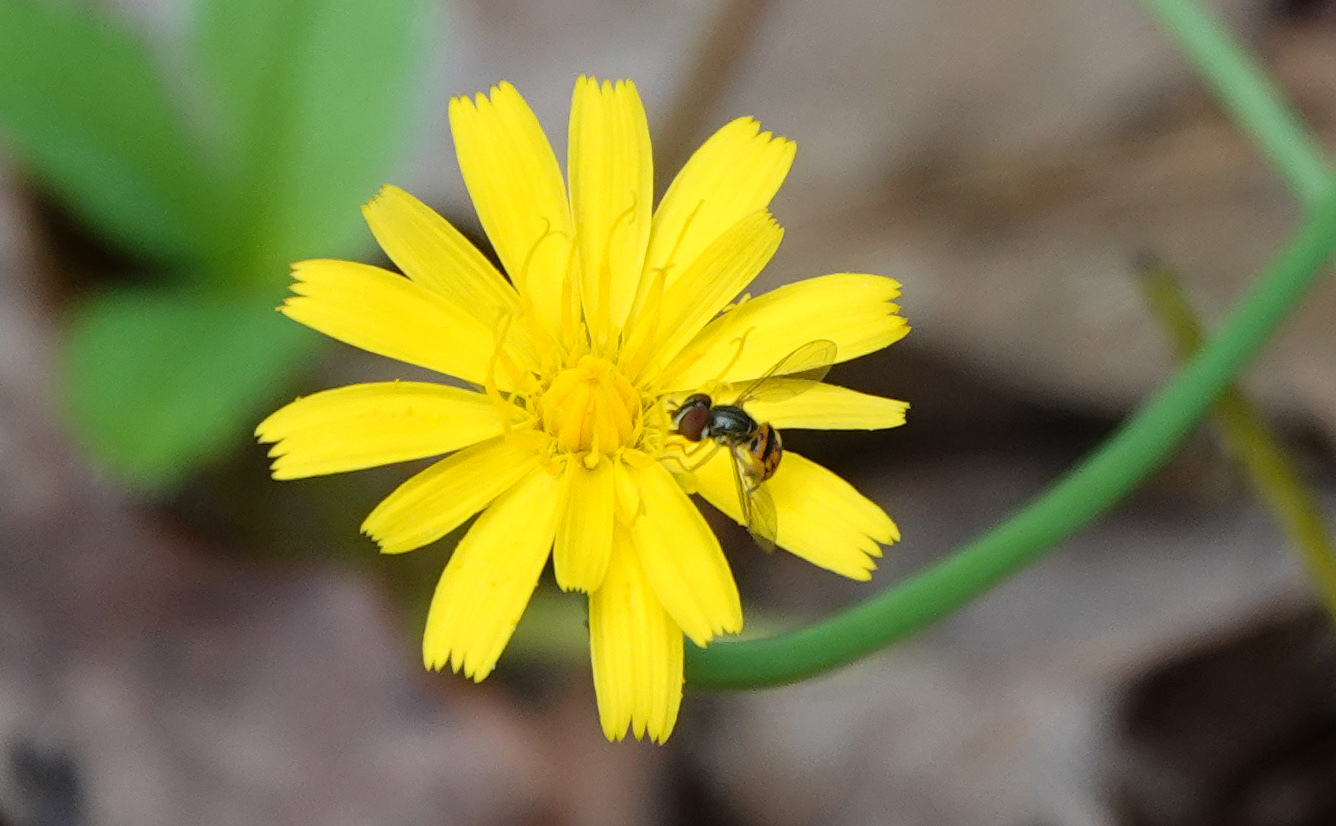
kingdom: Animalia
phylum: Arthropoda
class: Insecta
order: Diptera
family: Syrphidae
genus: Toxomerus
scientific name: Toxomerus boscii
